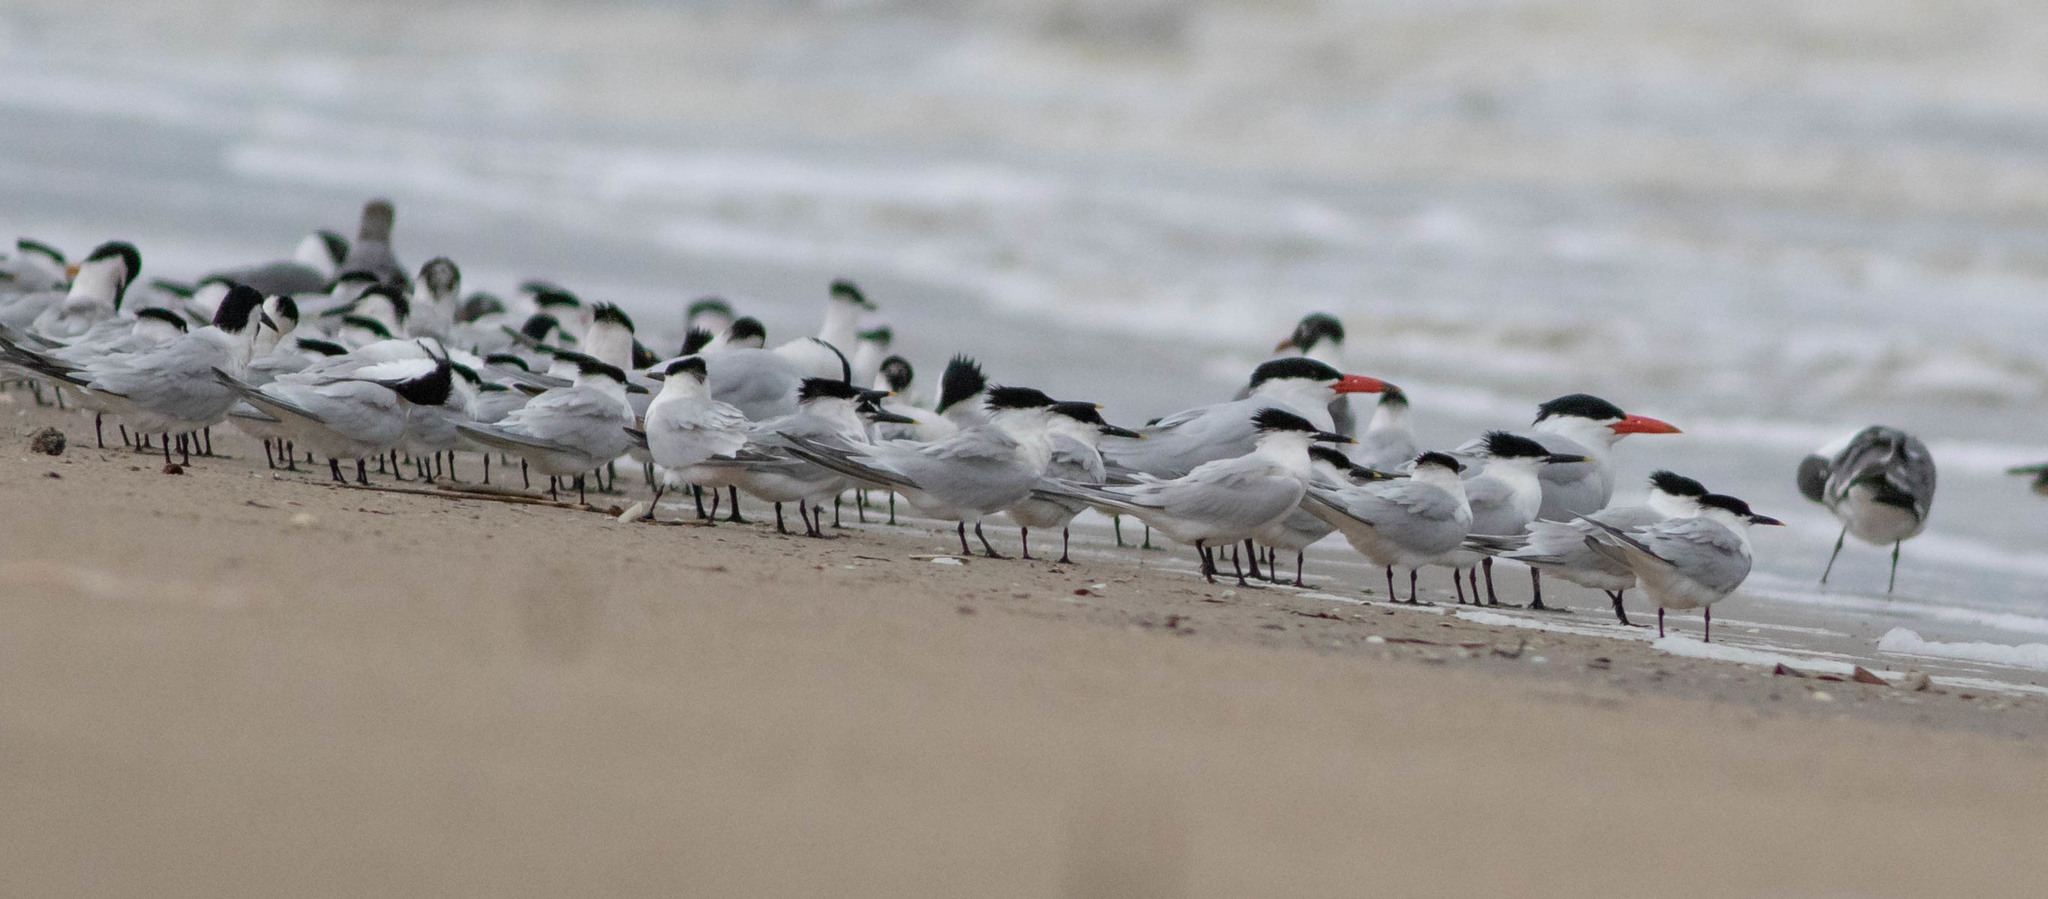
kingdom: Animalia
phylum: Chordata
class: Aves
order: Charadriiformes
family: Laridae
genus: Thalasseus
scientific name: Thalasseus sandvicensis
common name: Sandwich tern
